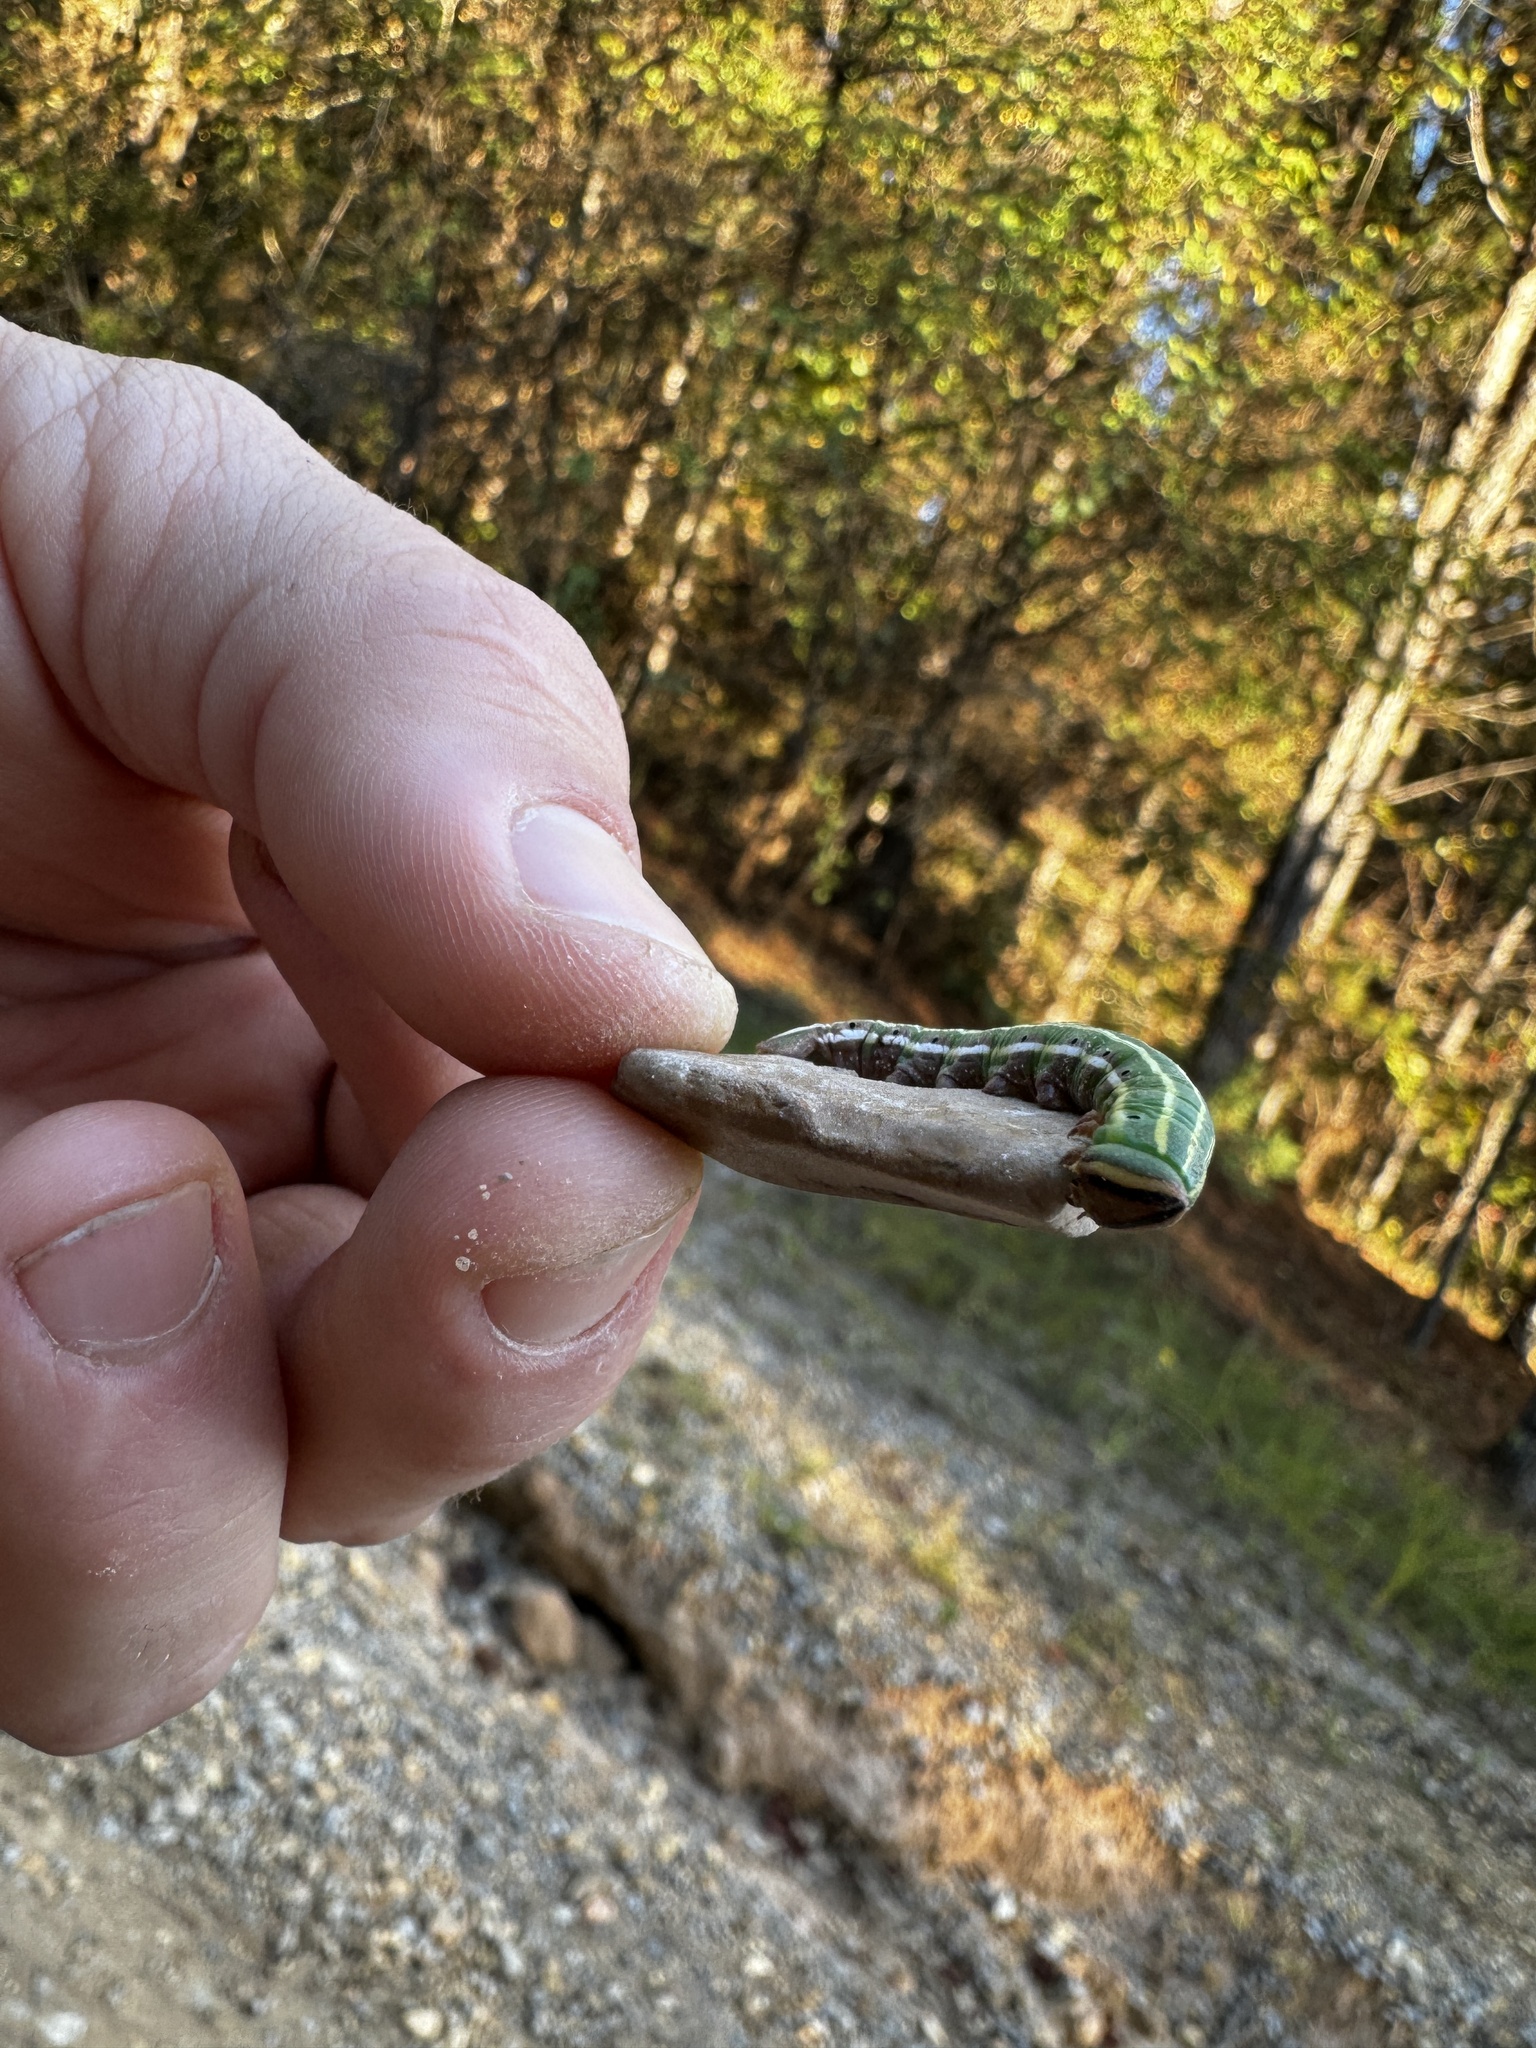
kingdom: Animalia
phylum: Arthropoda
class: Insecta
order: Lepidoptera
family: Sphingidae
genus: Lapara
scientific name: Lapara coniferarum
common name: Southern pine sphinx
